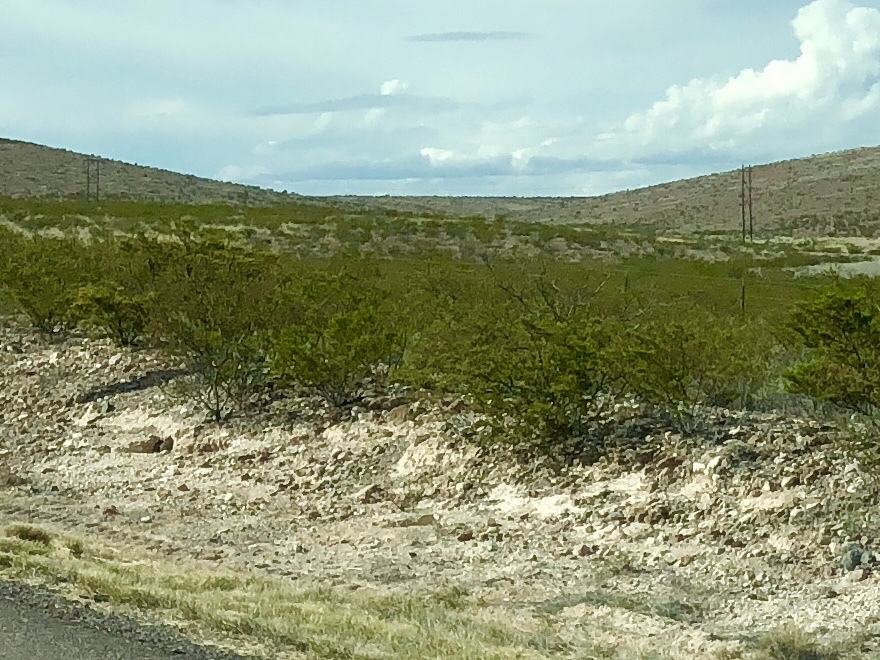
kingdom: Plantae
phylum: Tracheophyta
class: Magnoliopsida
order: Zygophyllales
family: Zygophyllaceae
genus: Larrea
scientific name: Larrea tridentata
